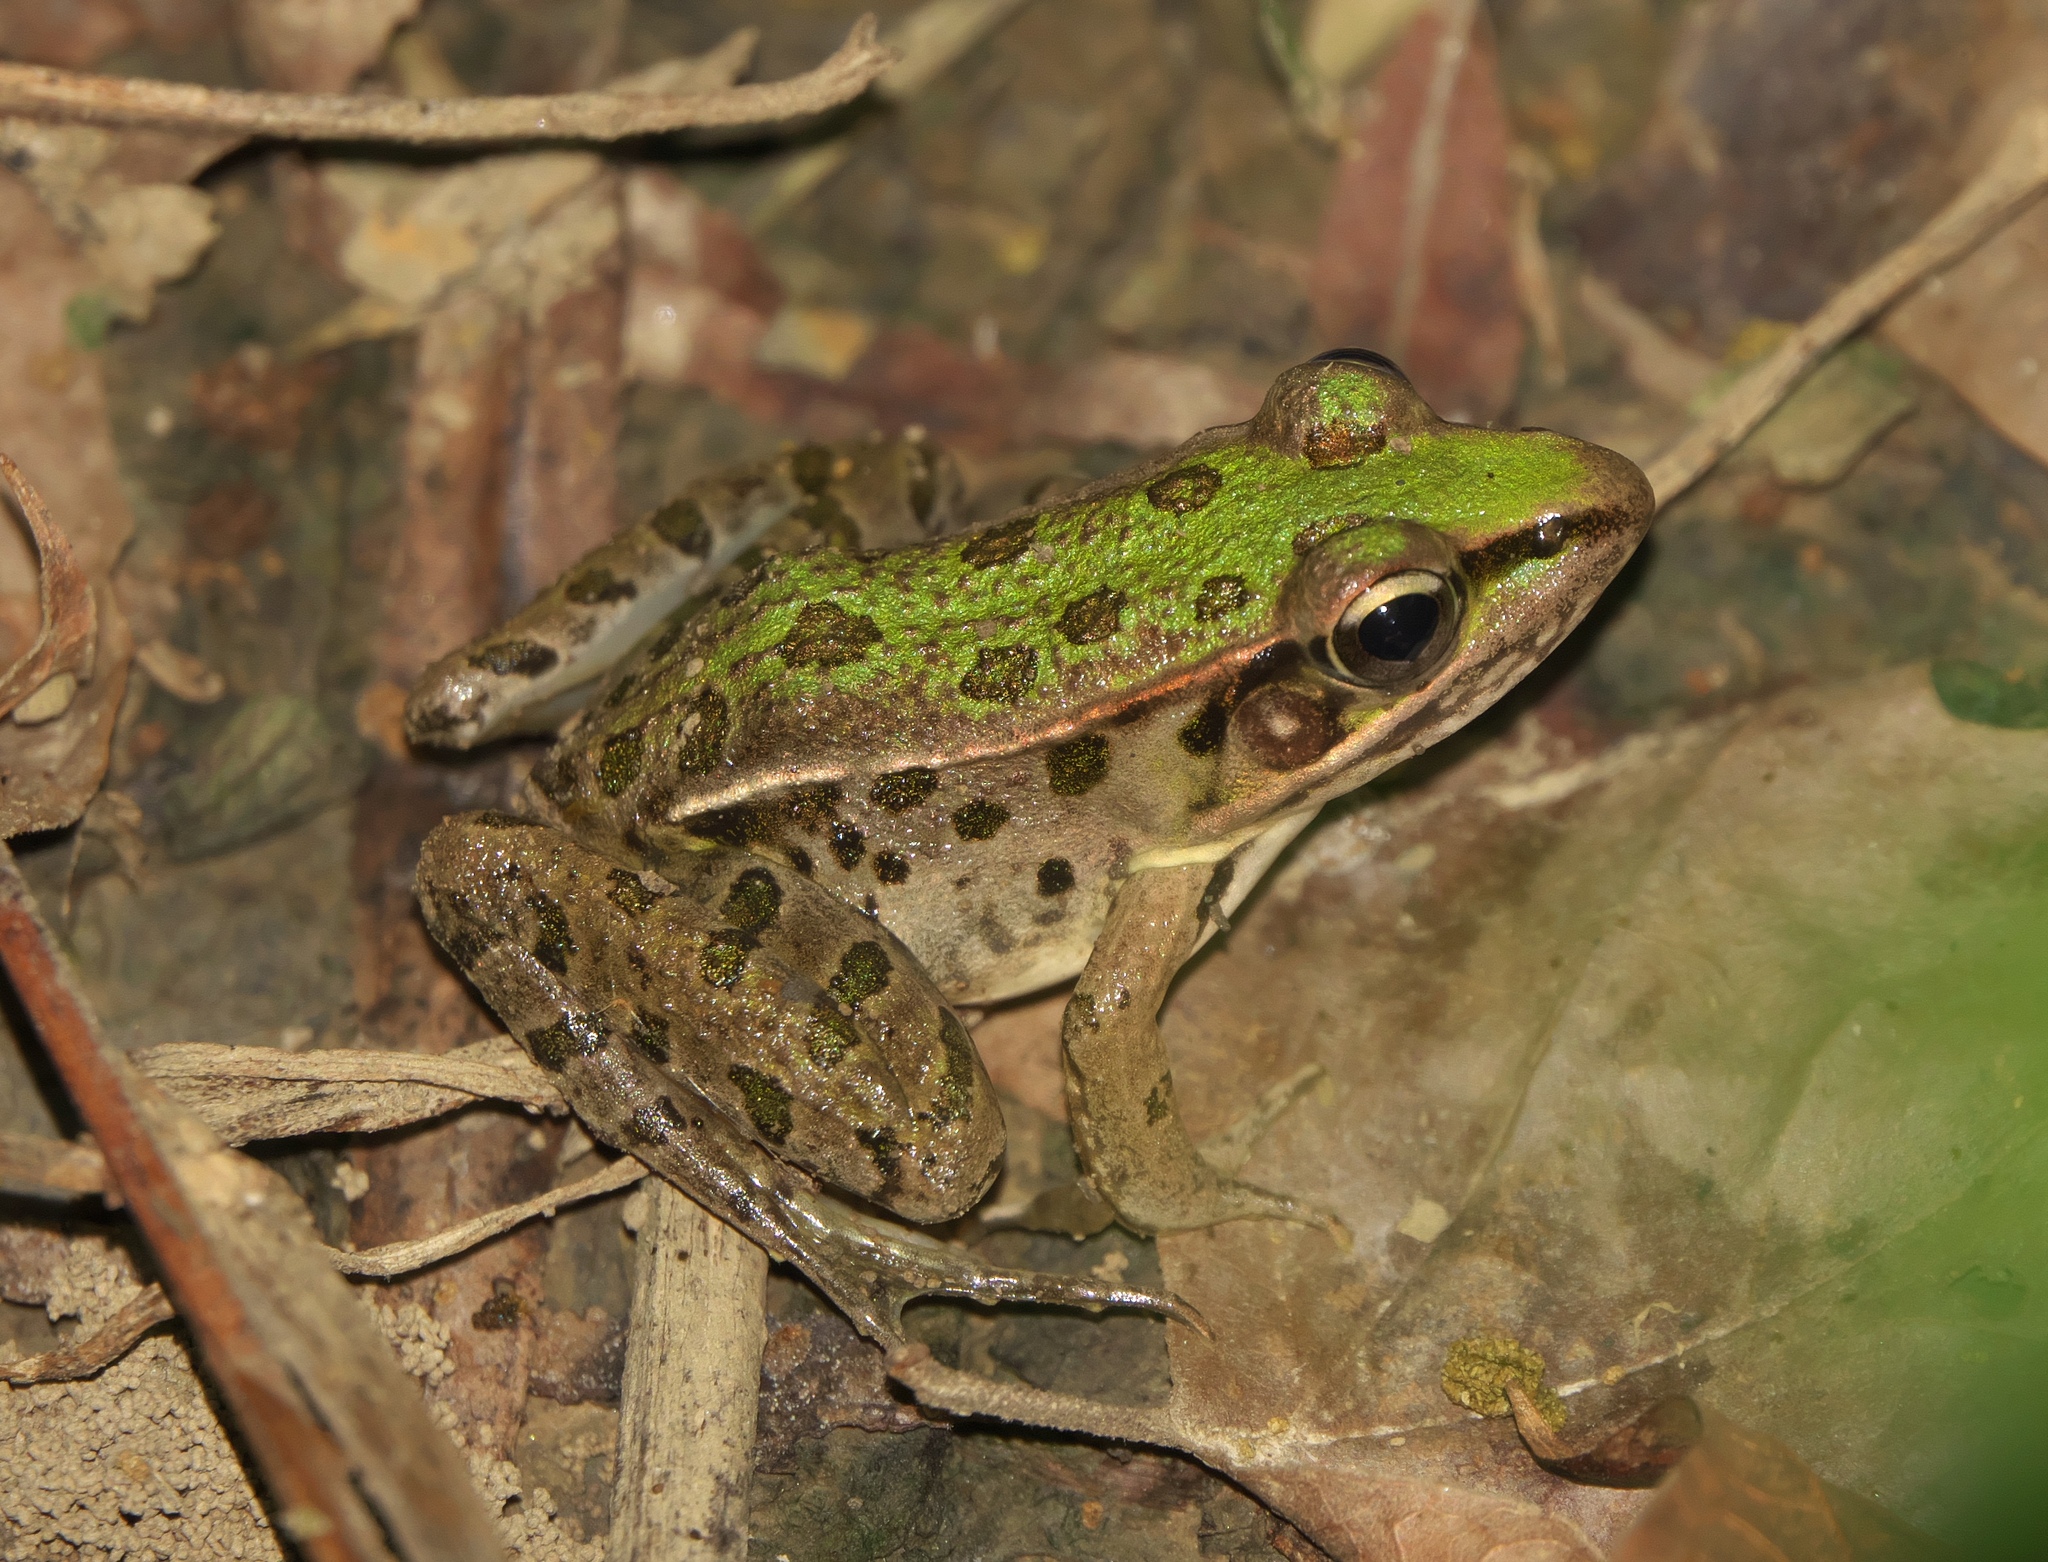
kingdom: Animalia
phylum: Chordata
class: Amphibia
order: Anura
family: Ranidae
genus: Lithobates
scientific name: Lithobates sphenocephalus
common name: Southern leopard frog
